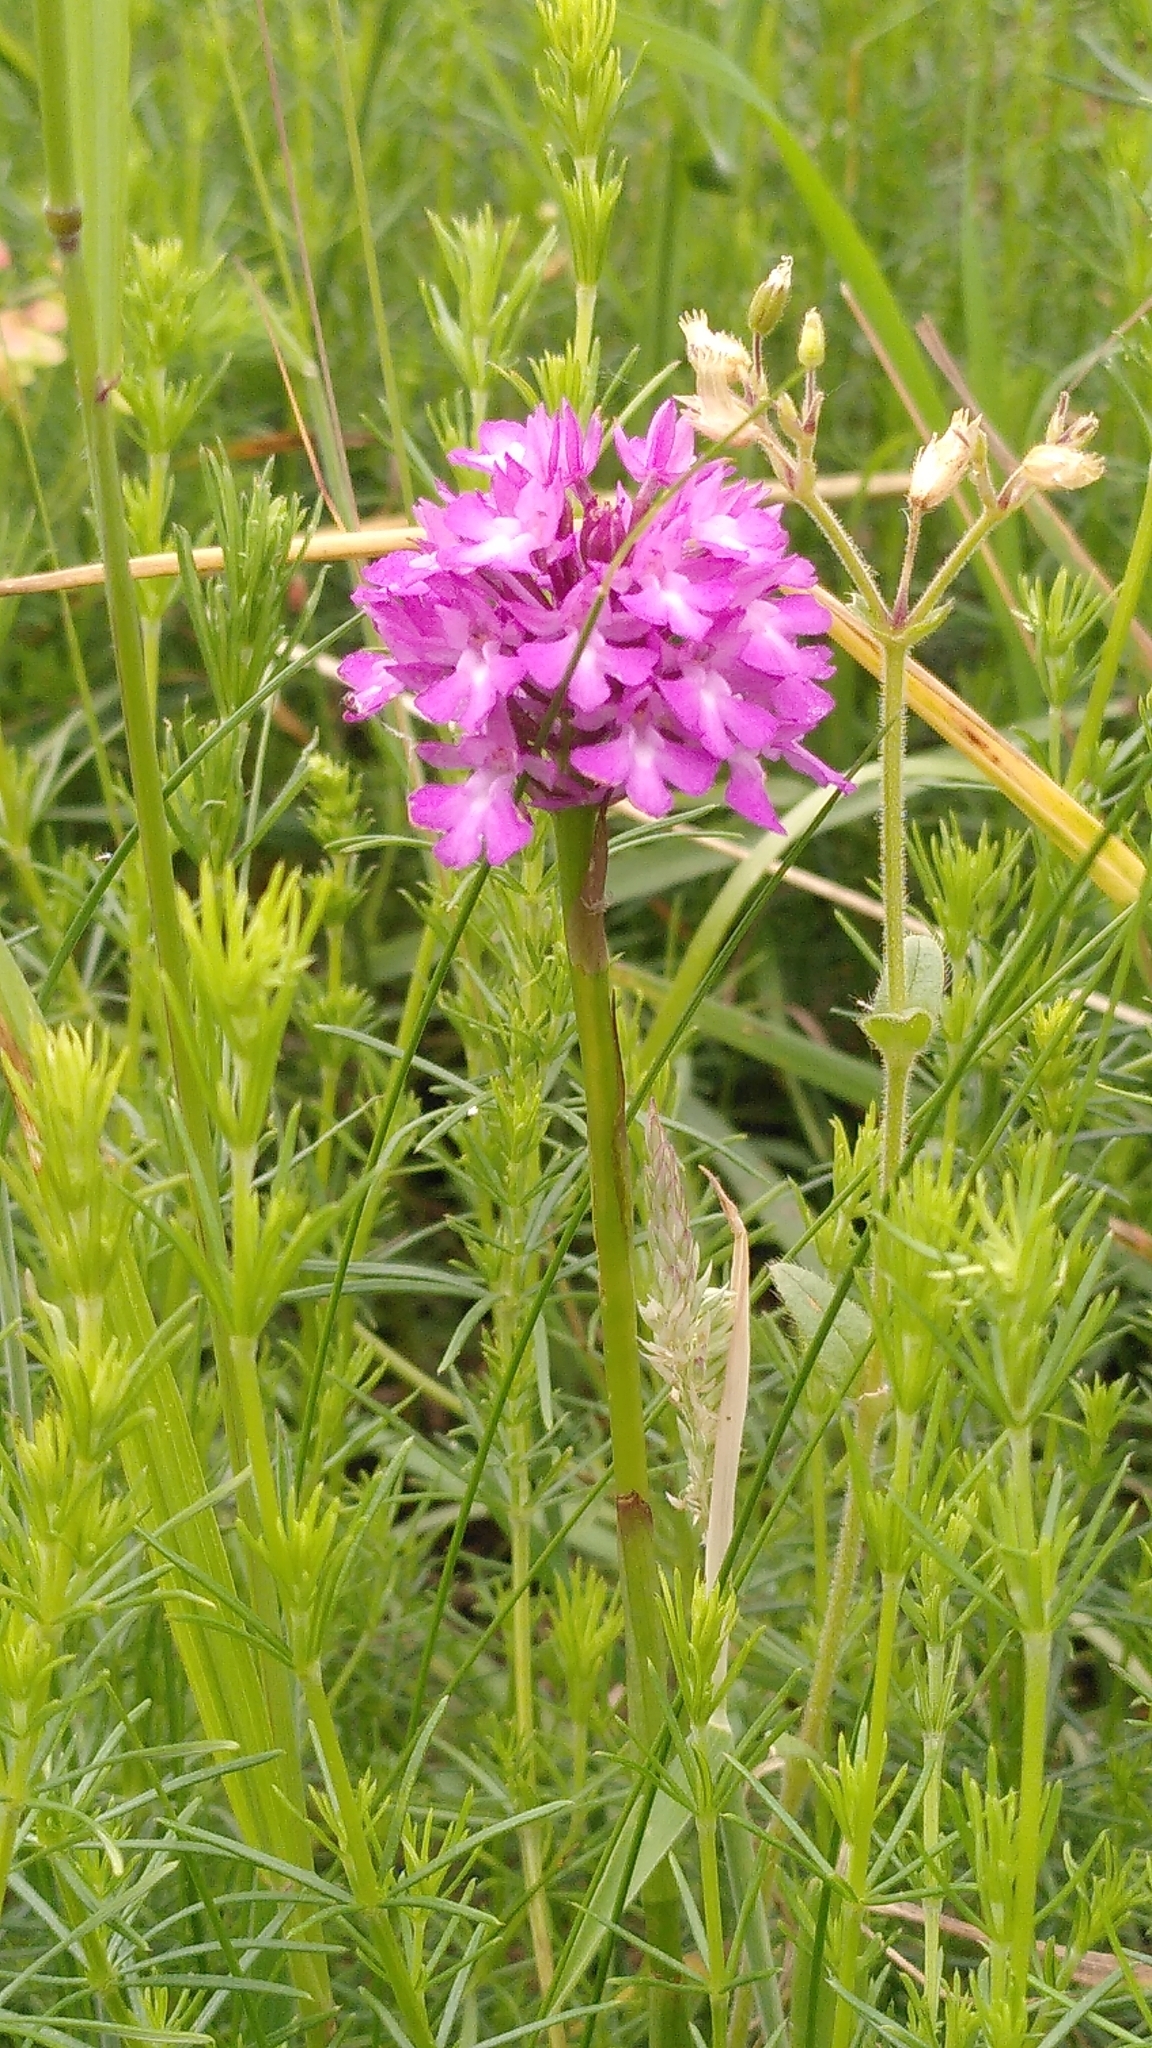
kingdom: Plantae
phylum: Tracheophyta
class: Liliopsida
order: Asparagales
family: Orchidaceae
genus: Anacamptis
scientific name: Anacamptis pyramidalis
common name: Pyramidal orchid
